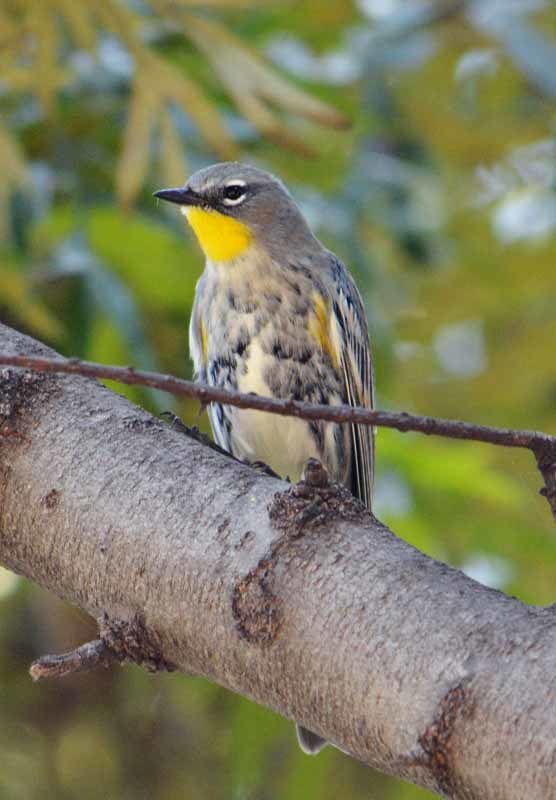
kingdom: Animalia
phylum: Chordata
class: Aves
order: Passeriformes
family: Parulidae
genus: Setophaga
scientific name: Setophaga coronata
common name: Myrtle warbler
